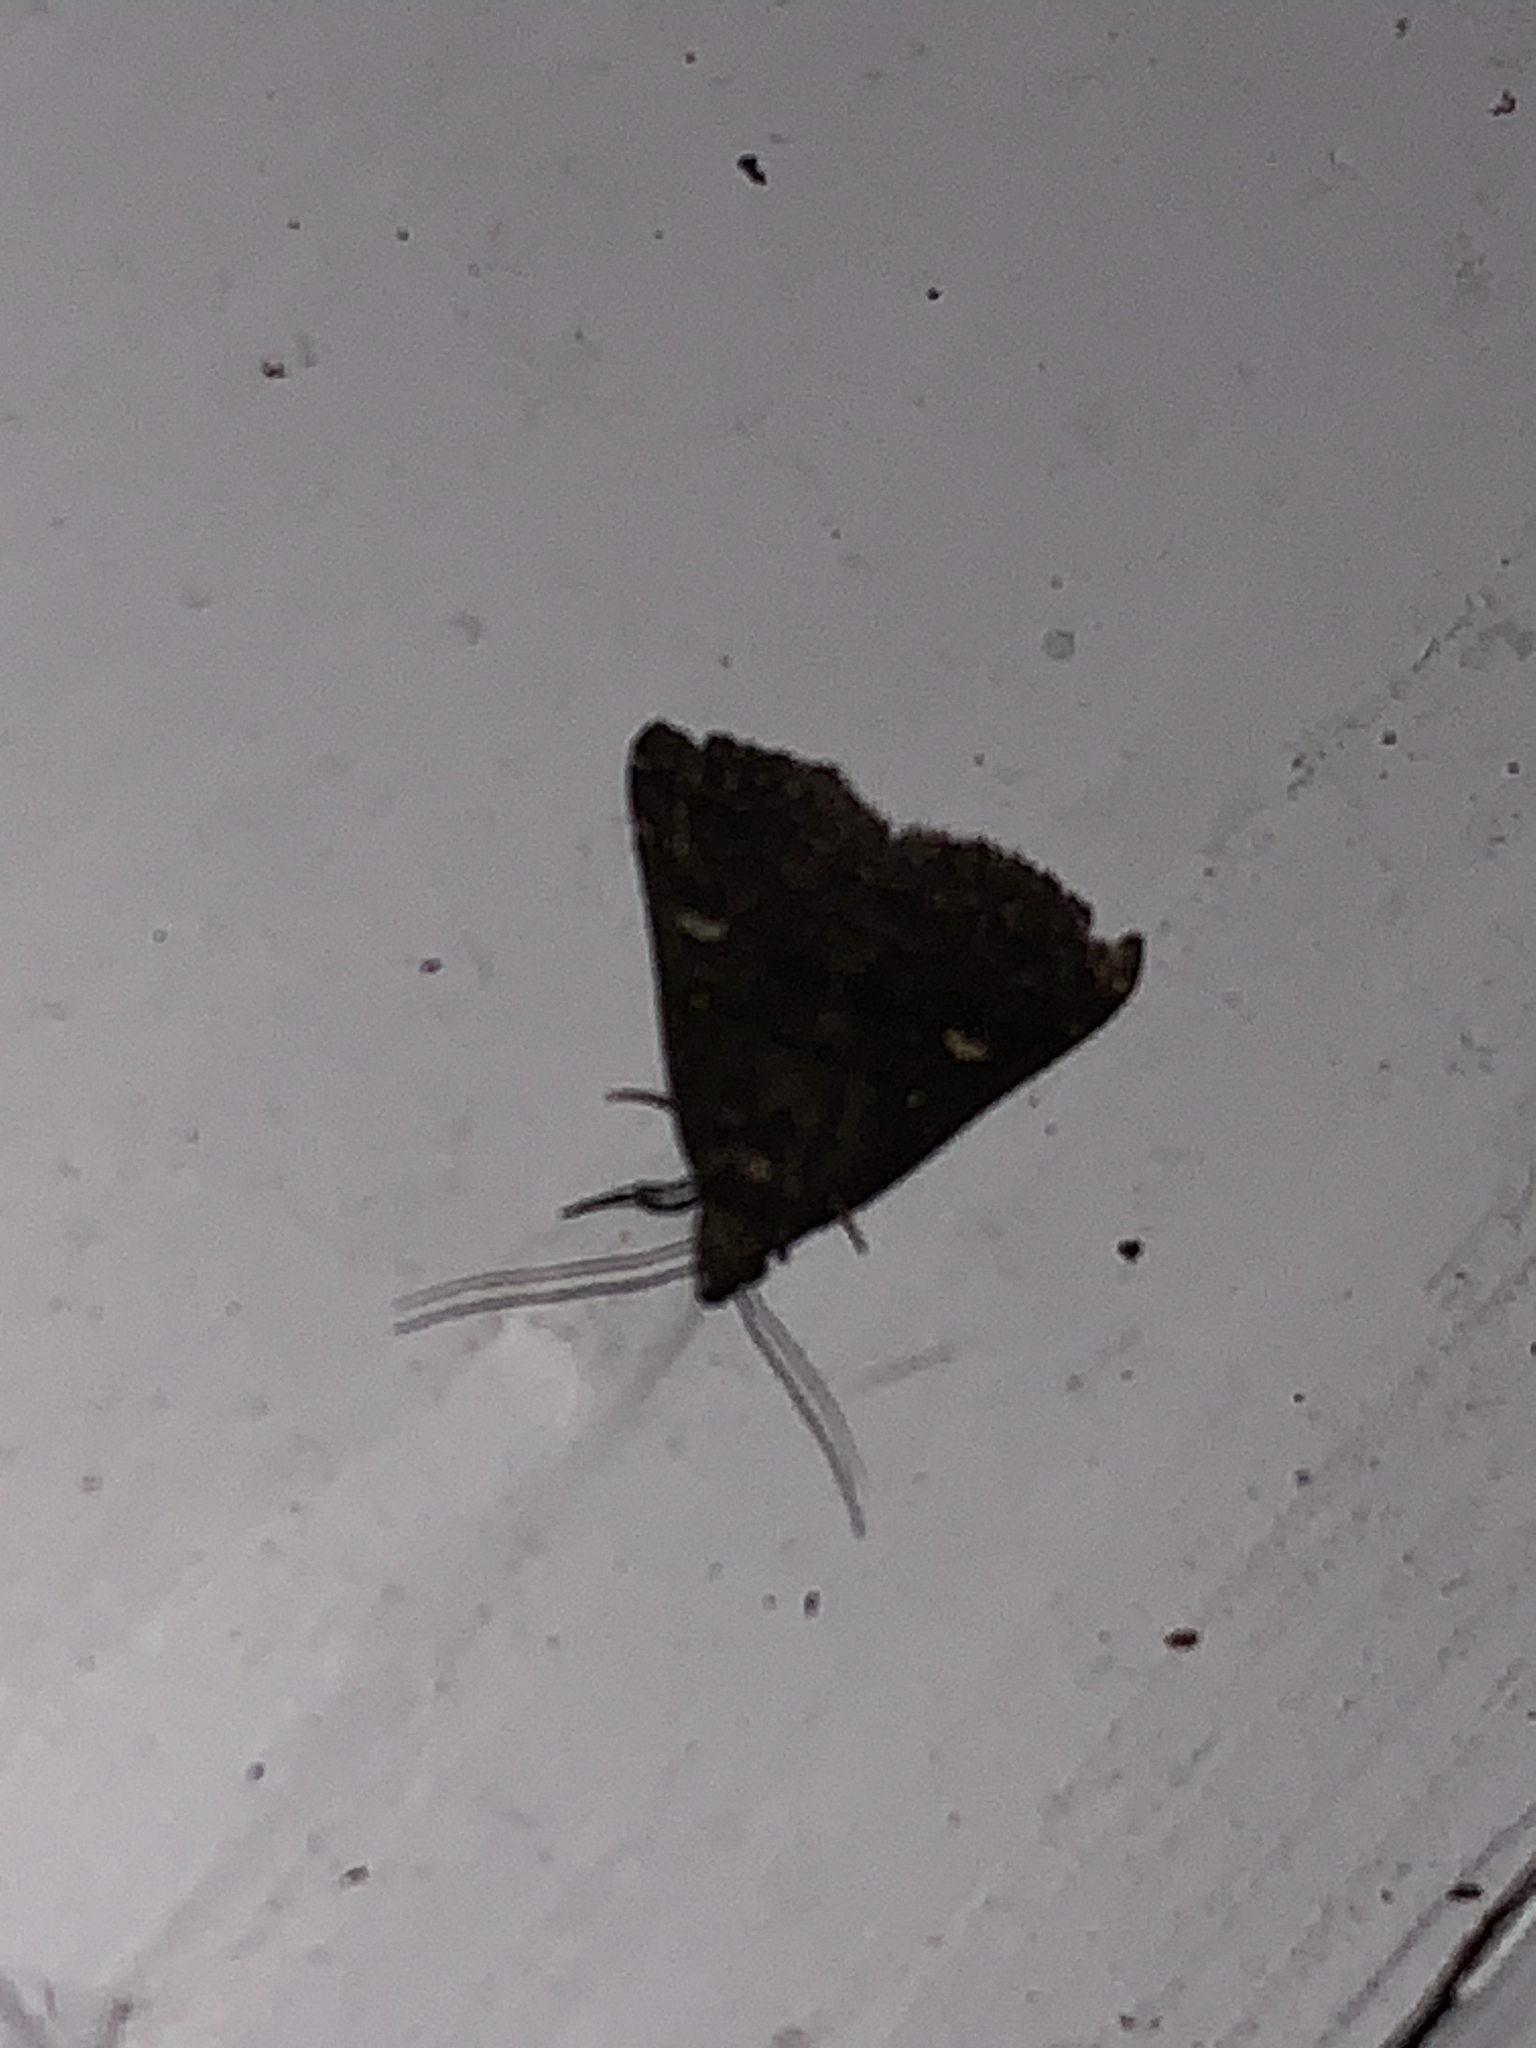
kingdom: Animalia
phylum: Arthropoda
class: Insecta
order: Lepidoptera
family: Erebidae
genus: Tetanolita
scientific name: Tetanolita mynesalis
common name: Smoky tetanolita moth
